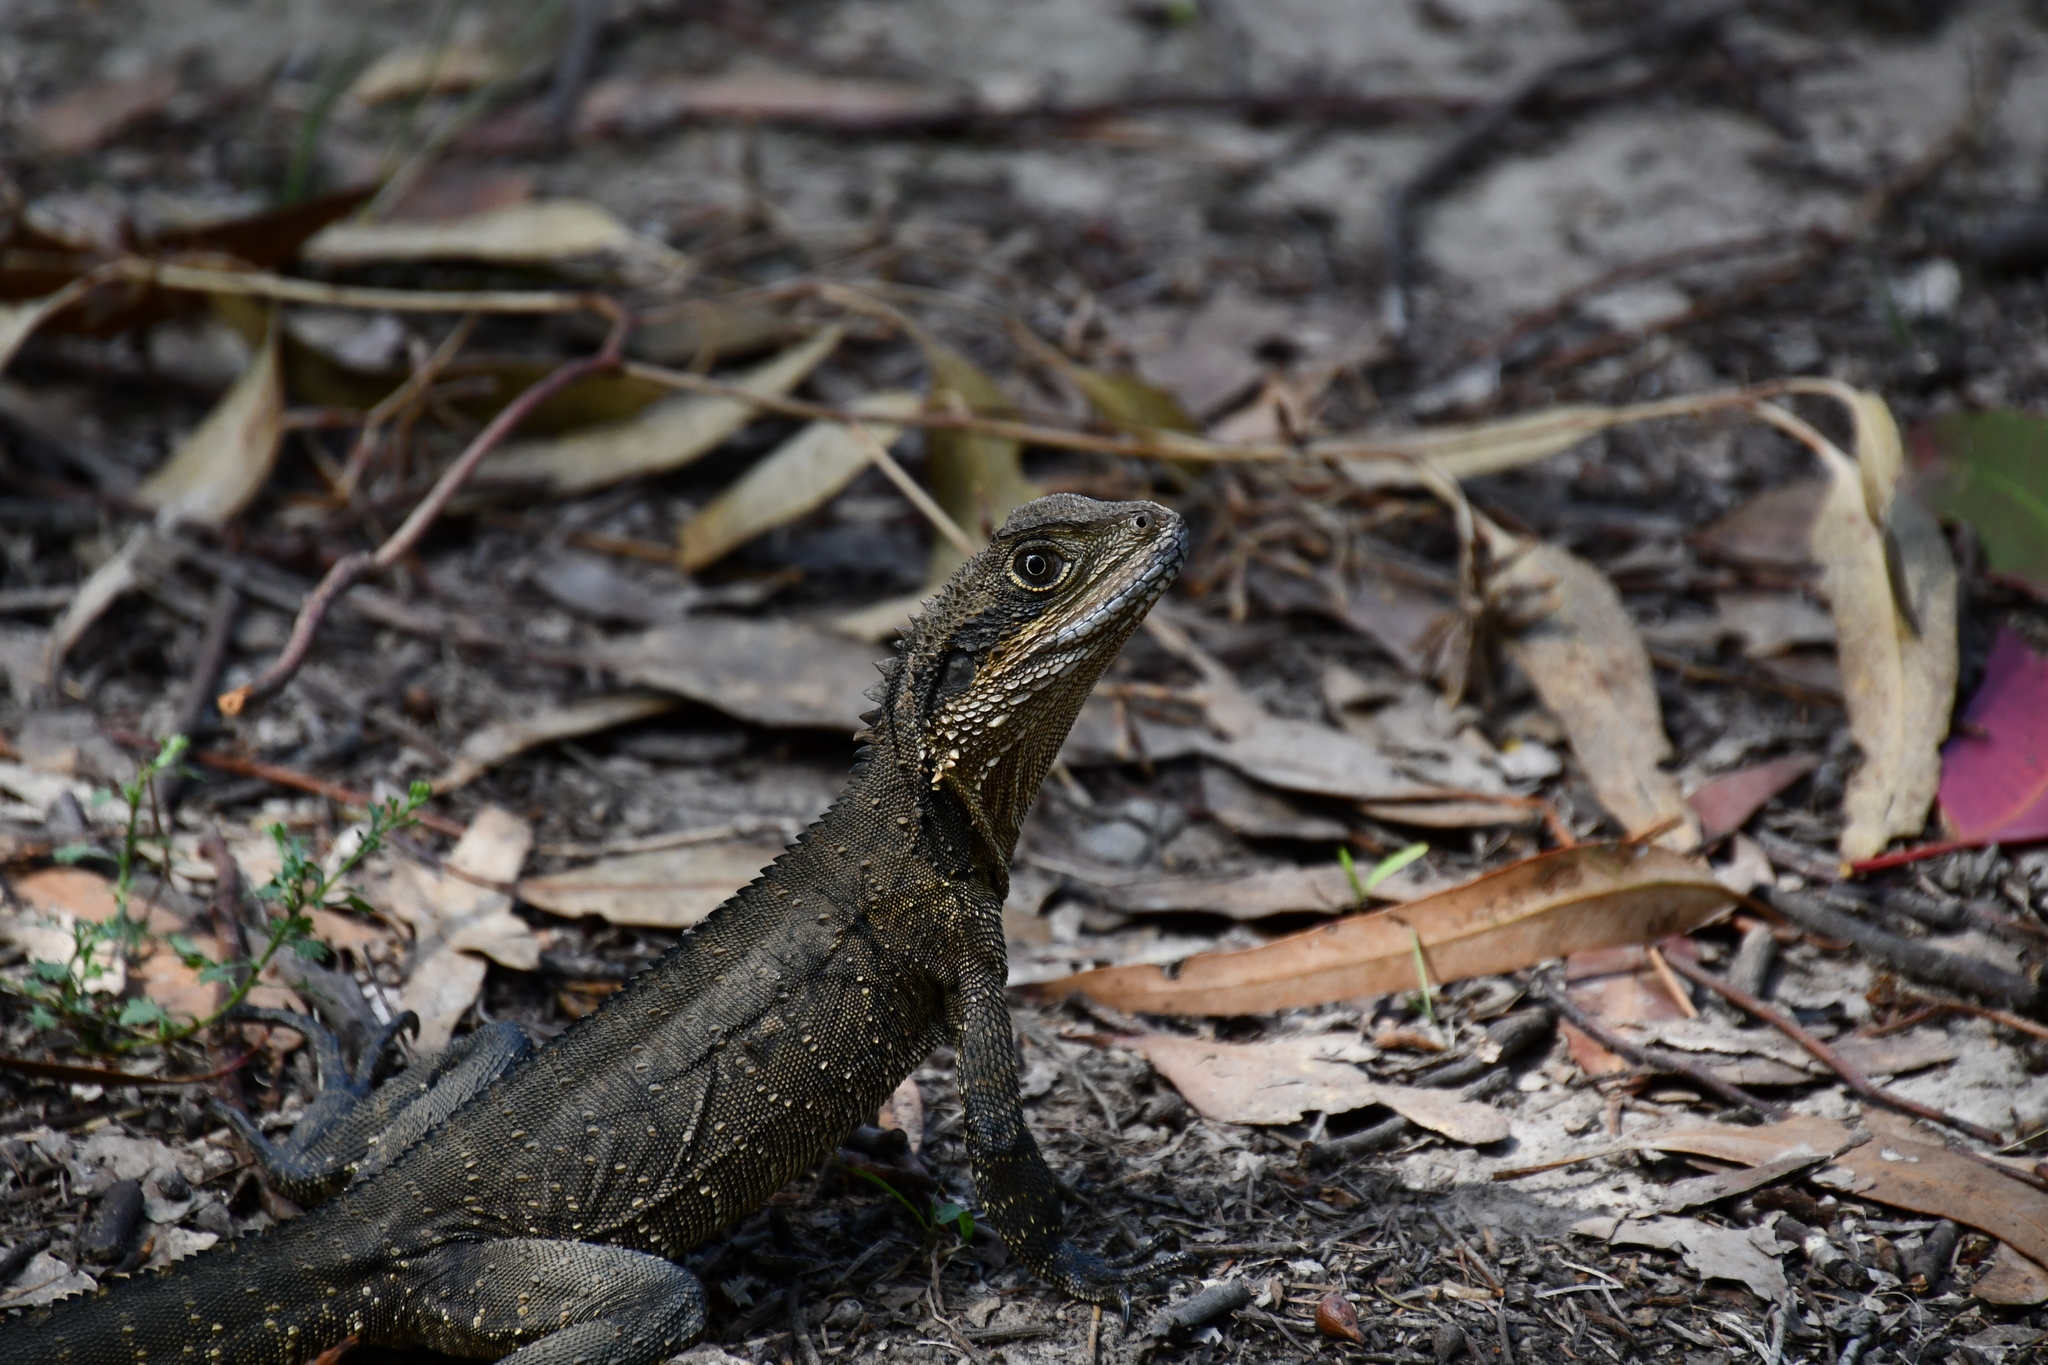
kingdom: Animalia
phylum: Chordata
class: Squamata
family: Agamidae
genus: Intellagama
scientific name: Intellagama lesueurii
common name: Eastern water dragon
